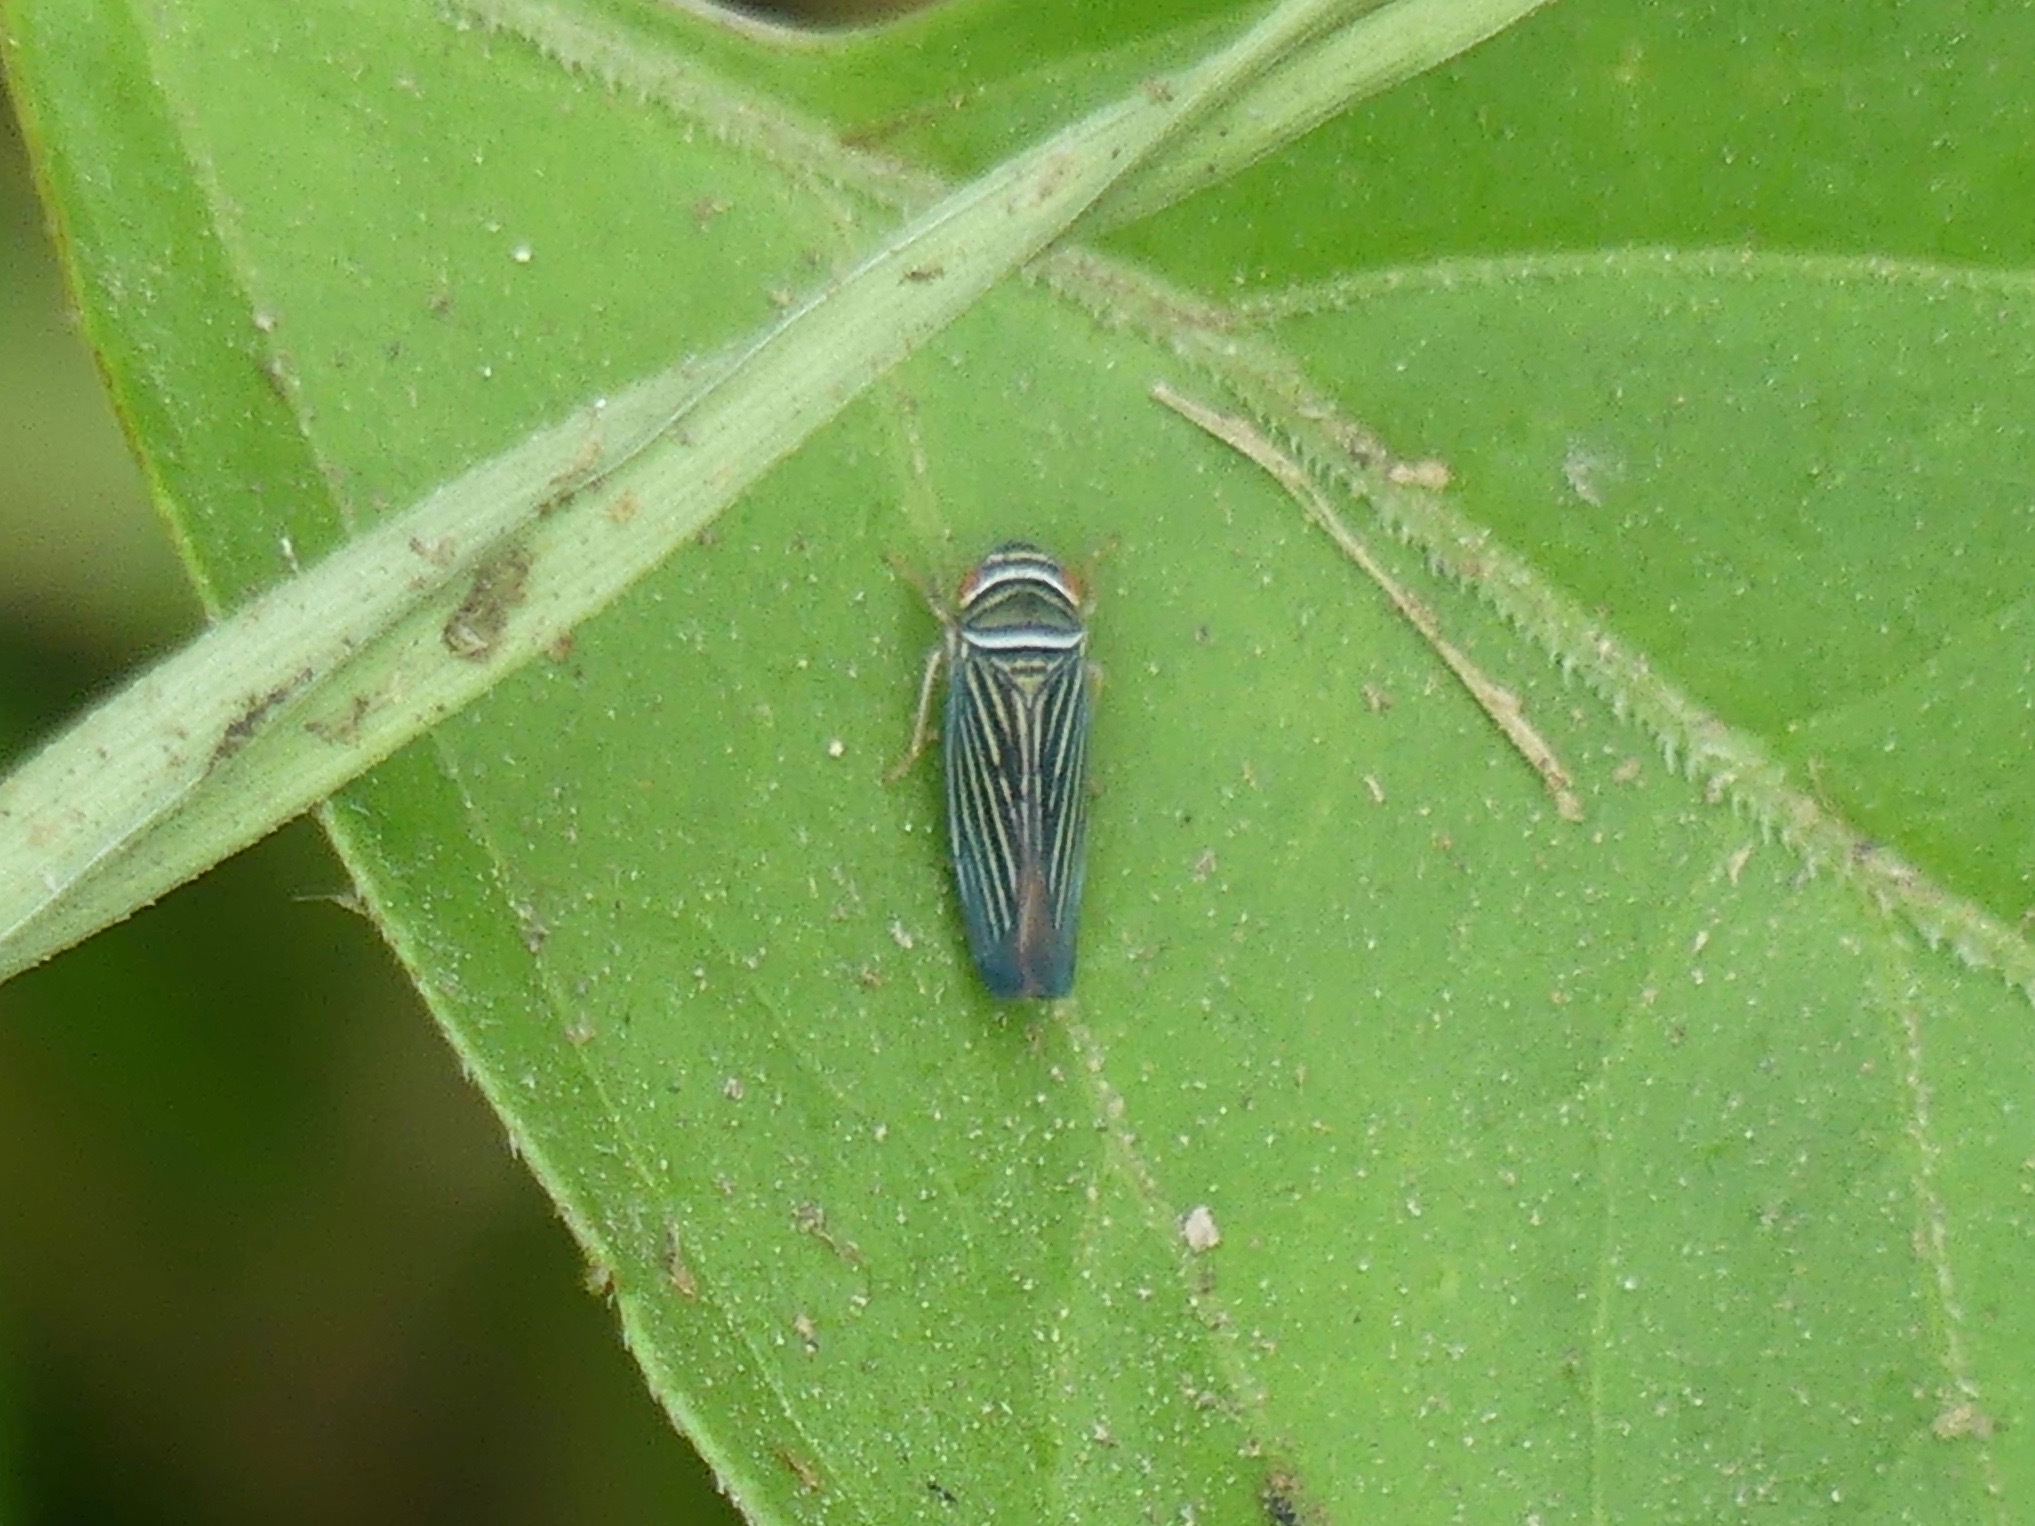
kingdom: Animalia
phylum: Arthropoda
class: Insecta
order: Hemiptera
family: Cicadellidae
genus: Tylozygus
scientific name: Tylozygus bifidus
